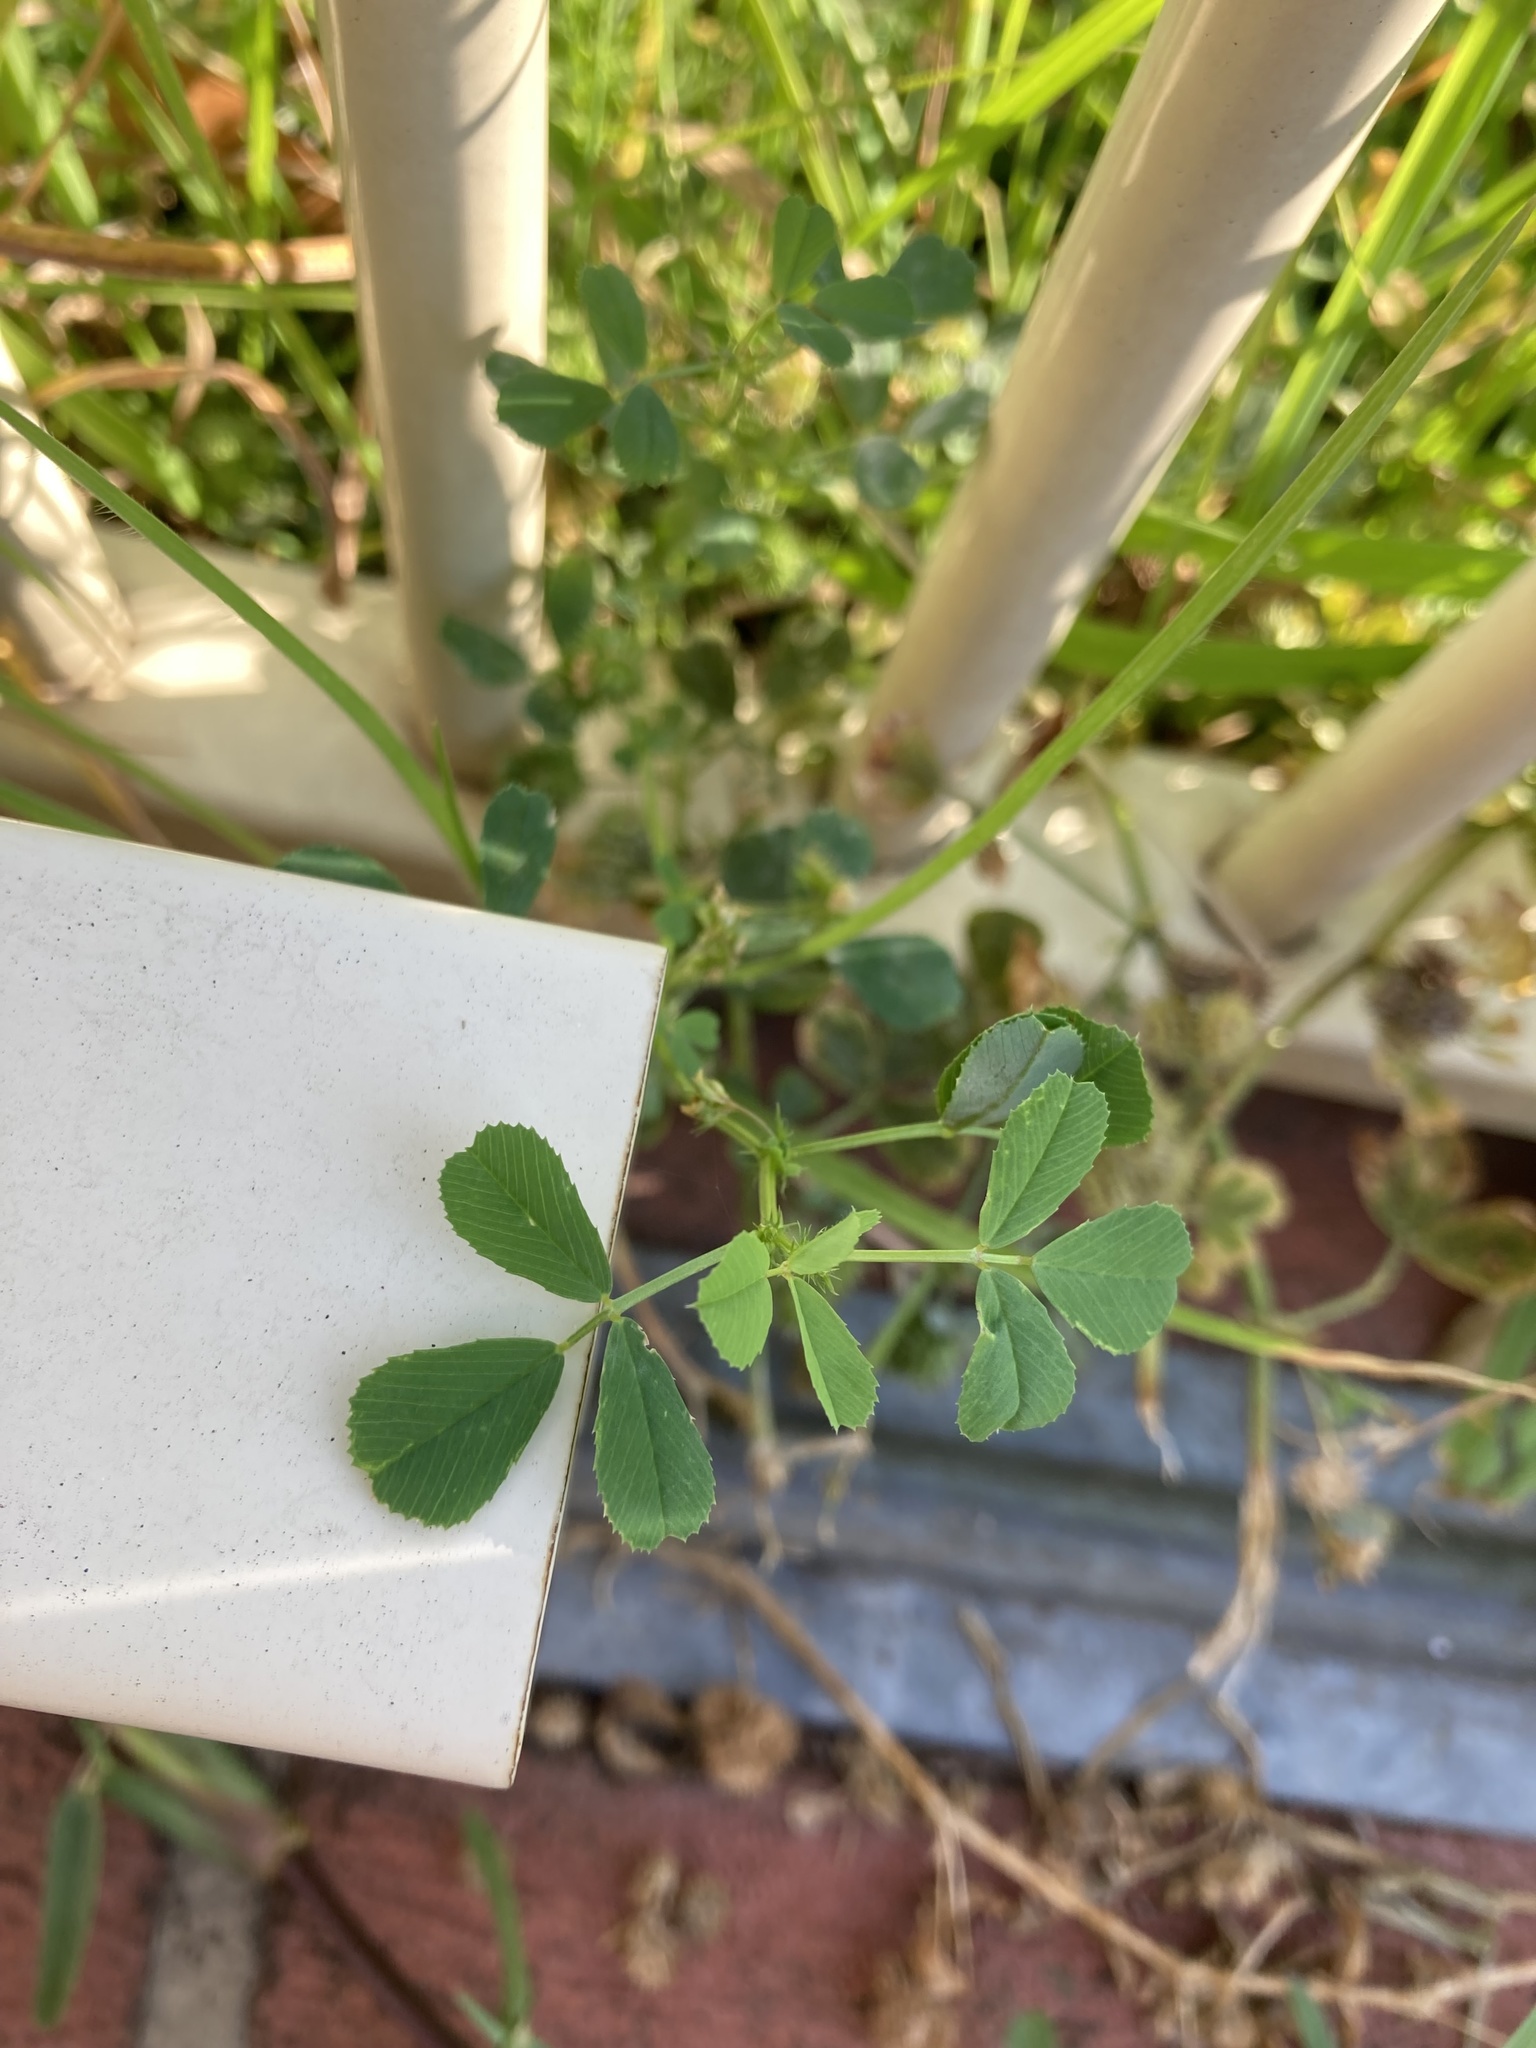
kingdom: Plantae
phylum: Tracheophyta
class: Magnoliopsida
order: Fabales
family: Fabaceae
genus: Medicago
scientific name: Medicago polymorpha
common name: Burclover
